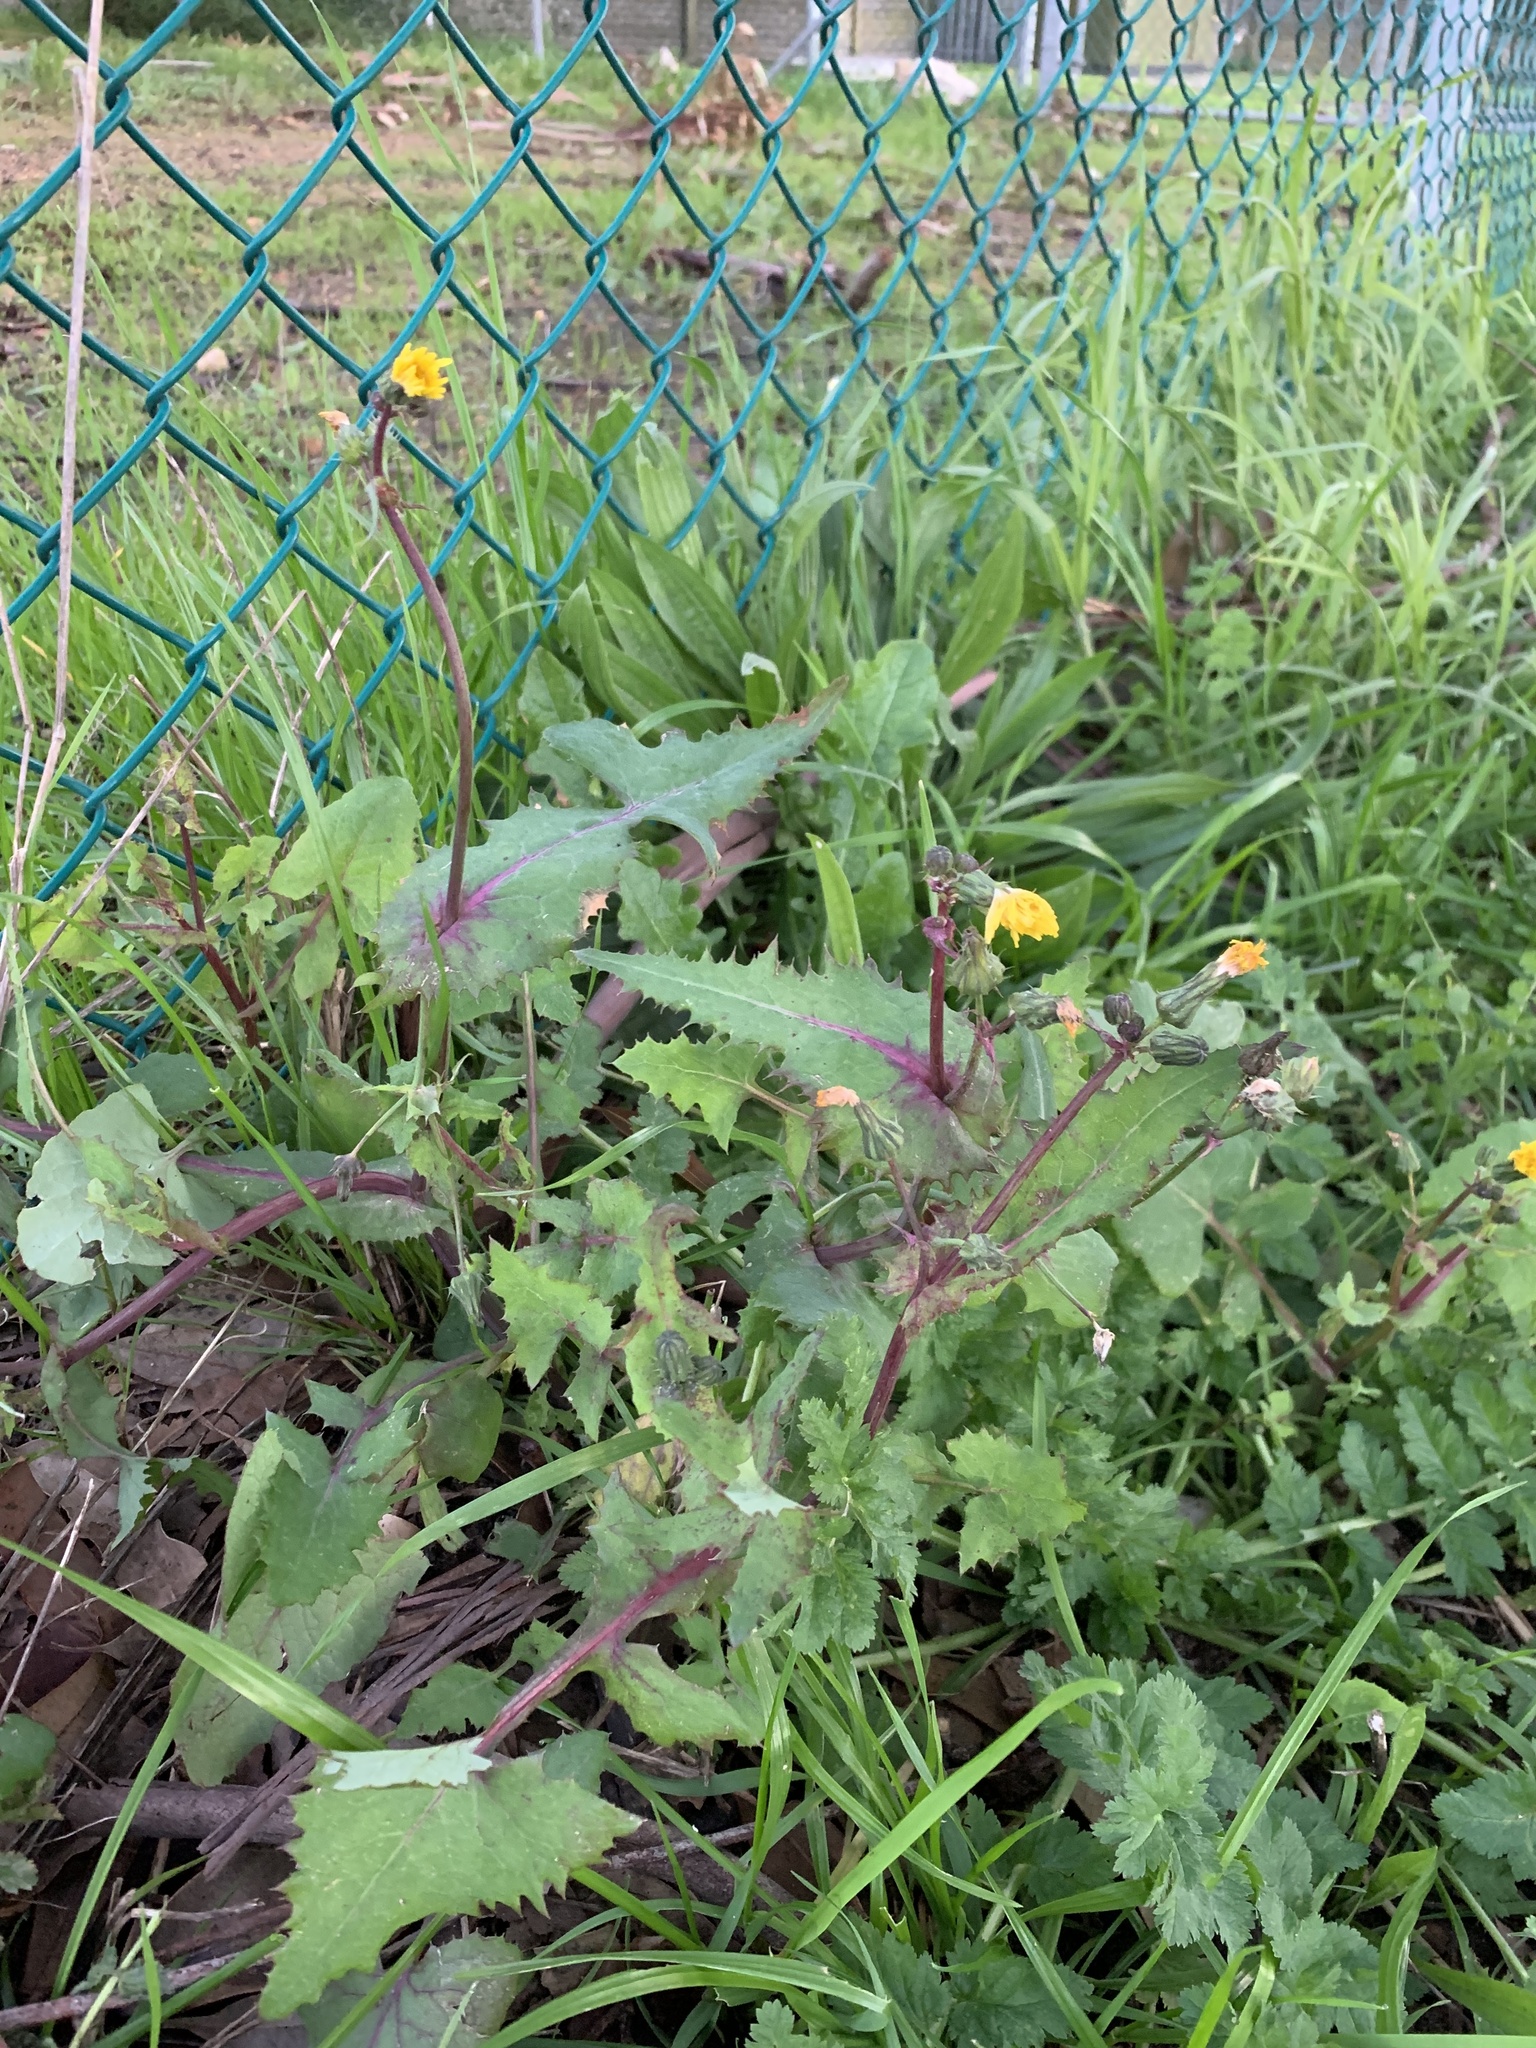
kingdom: Plantae
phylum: Tracheophyta
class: Magnoliopsida
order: Asterales
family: Asteraceae
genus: Sonchus
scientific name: Sonchus oleraceus
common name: Common sowthistle
